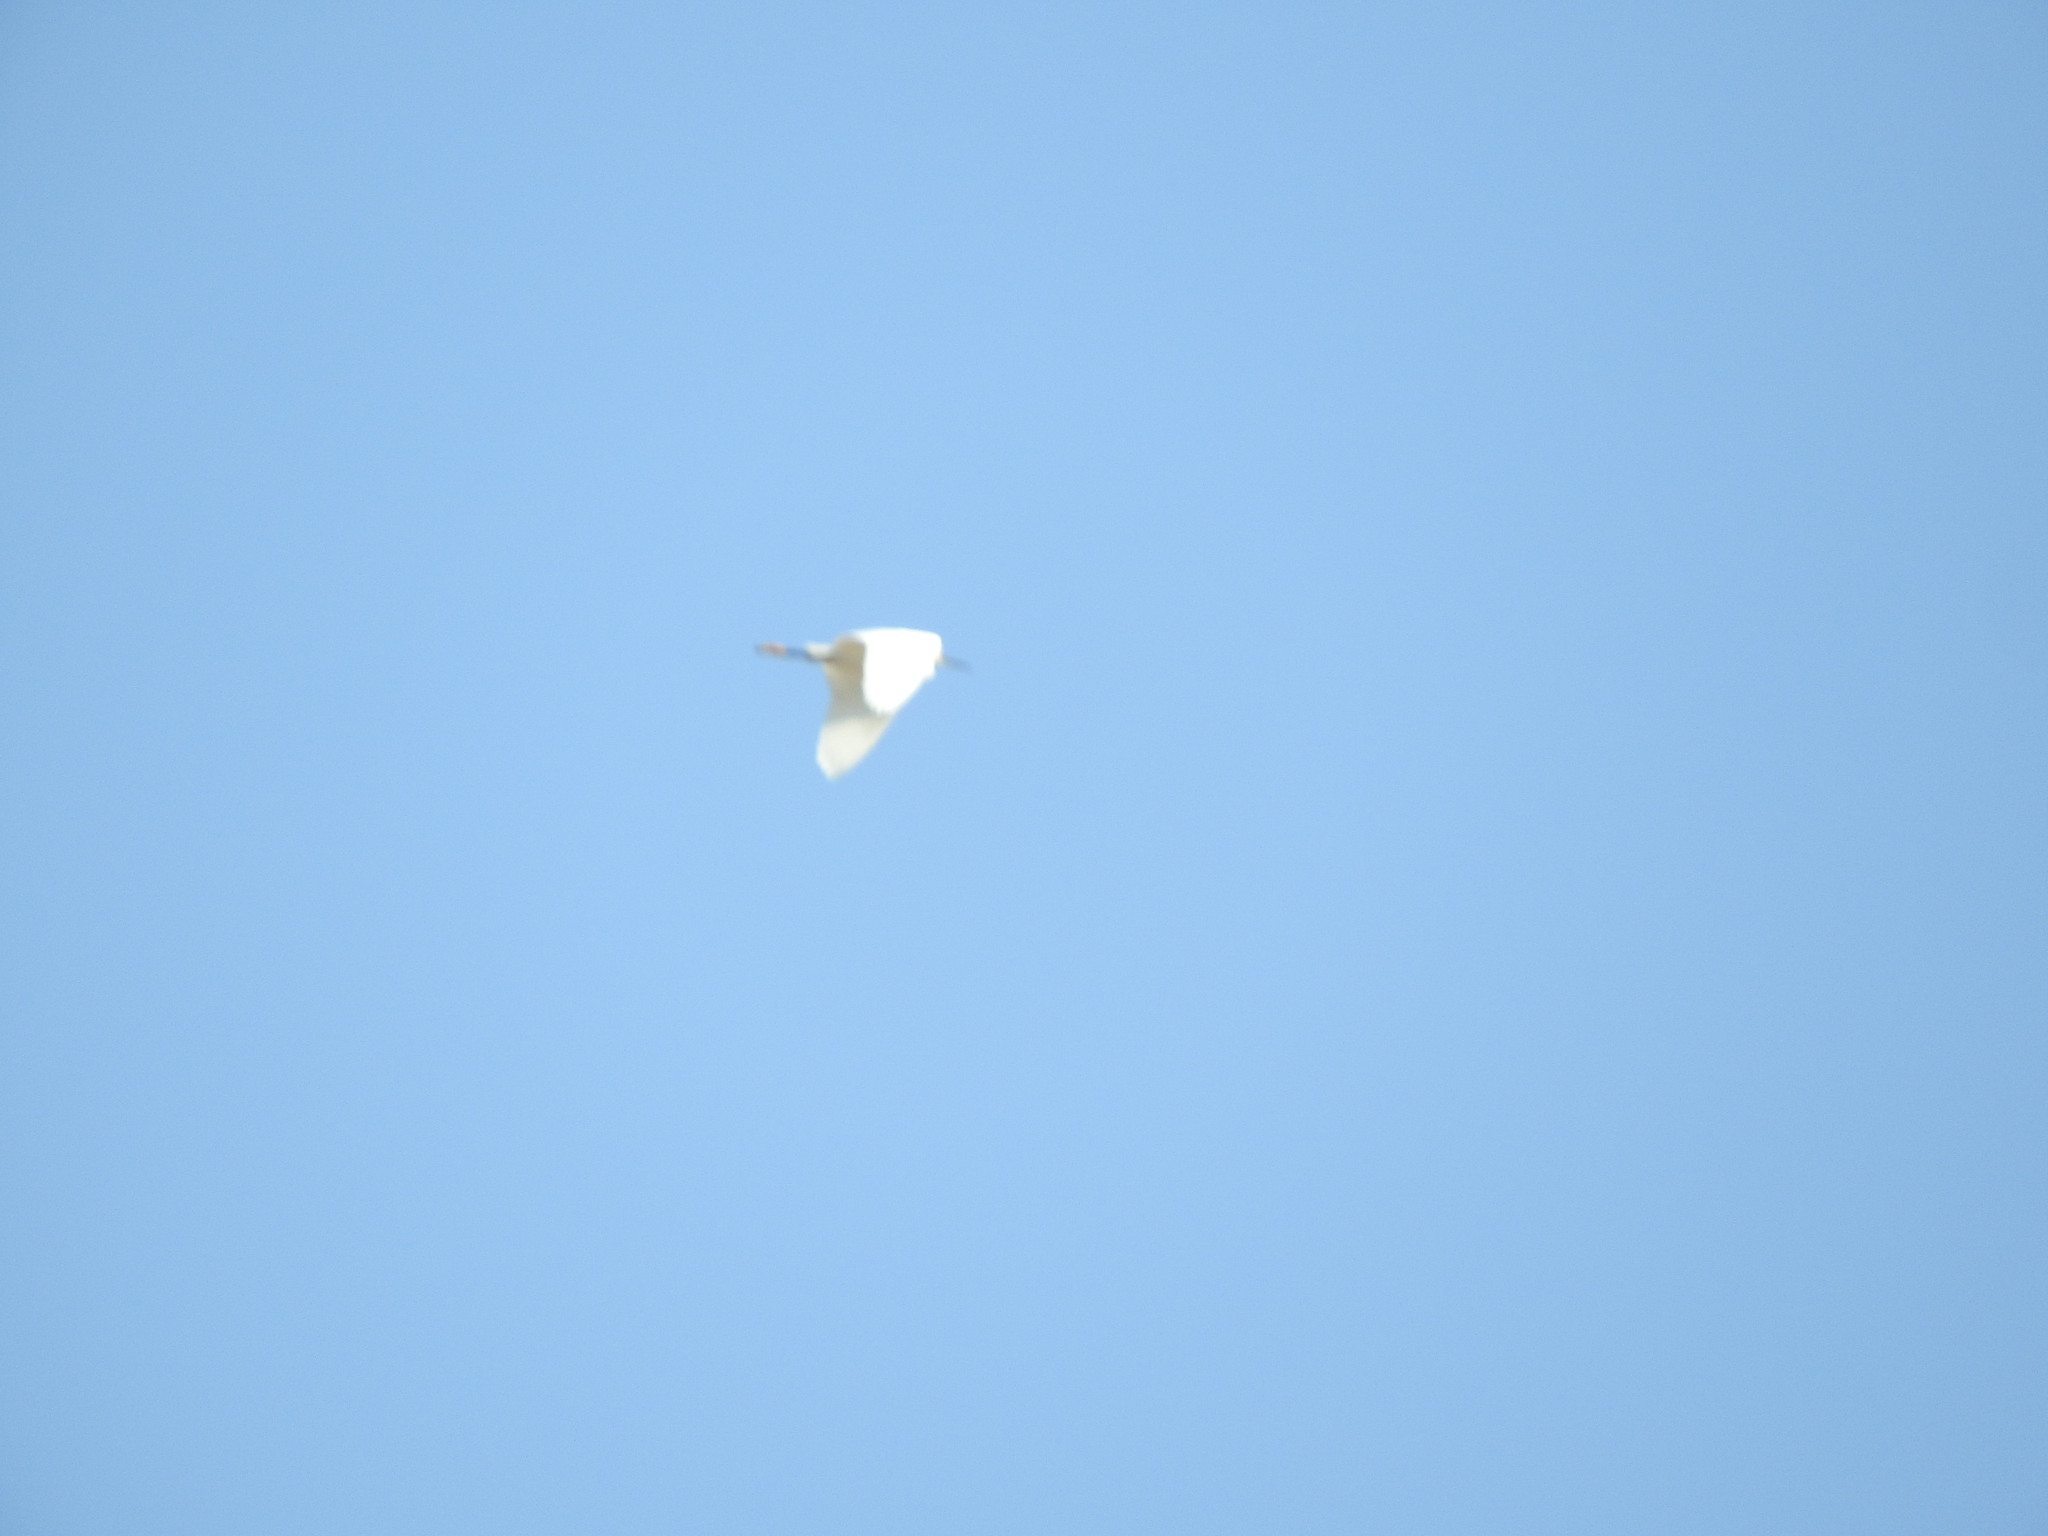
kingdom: Animalia
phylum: Chordata
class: Aves
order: Pelecaniformes
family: Ardeidae
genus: Egretta
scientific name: Egretta thula
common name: Snowy egret
